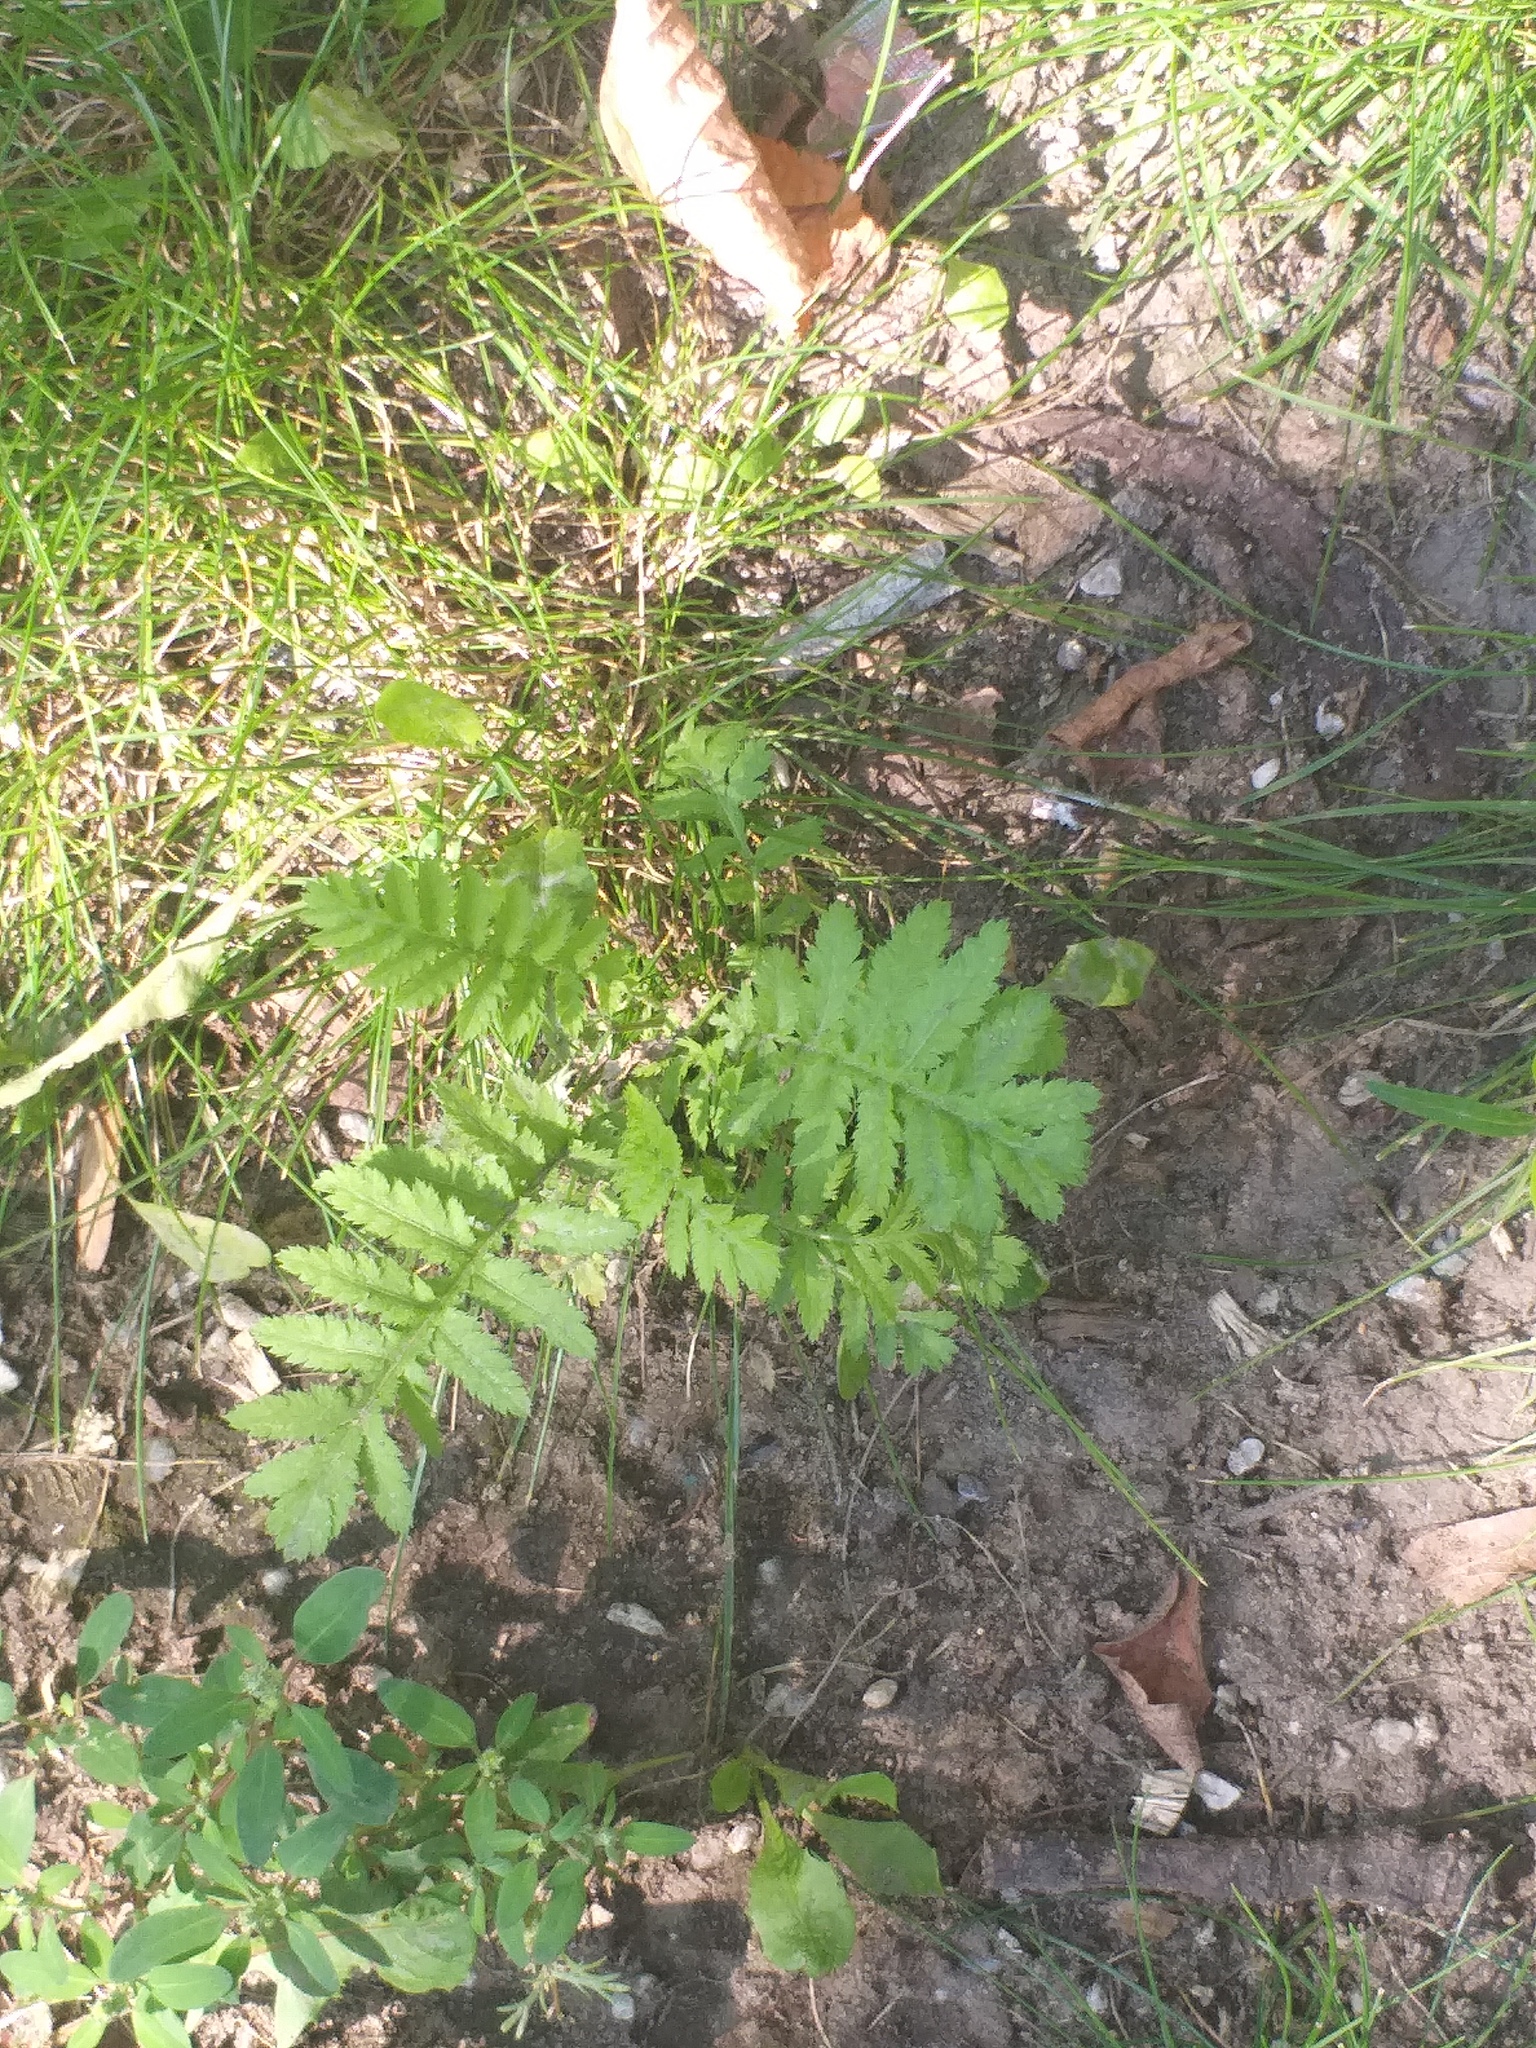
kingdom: Plantae
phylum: Tracheophyta
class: Magnoliopsida
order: Asterales
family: Asteraceae
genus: Tanacetum
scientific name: Tanacetum vulgare
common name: Common tansy
